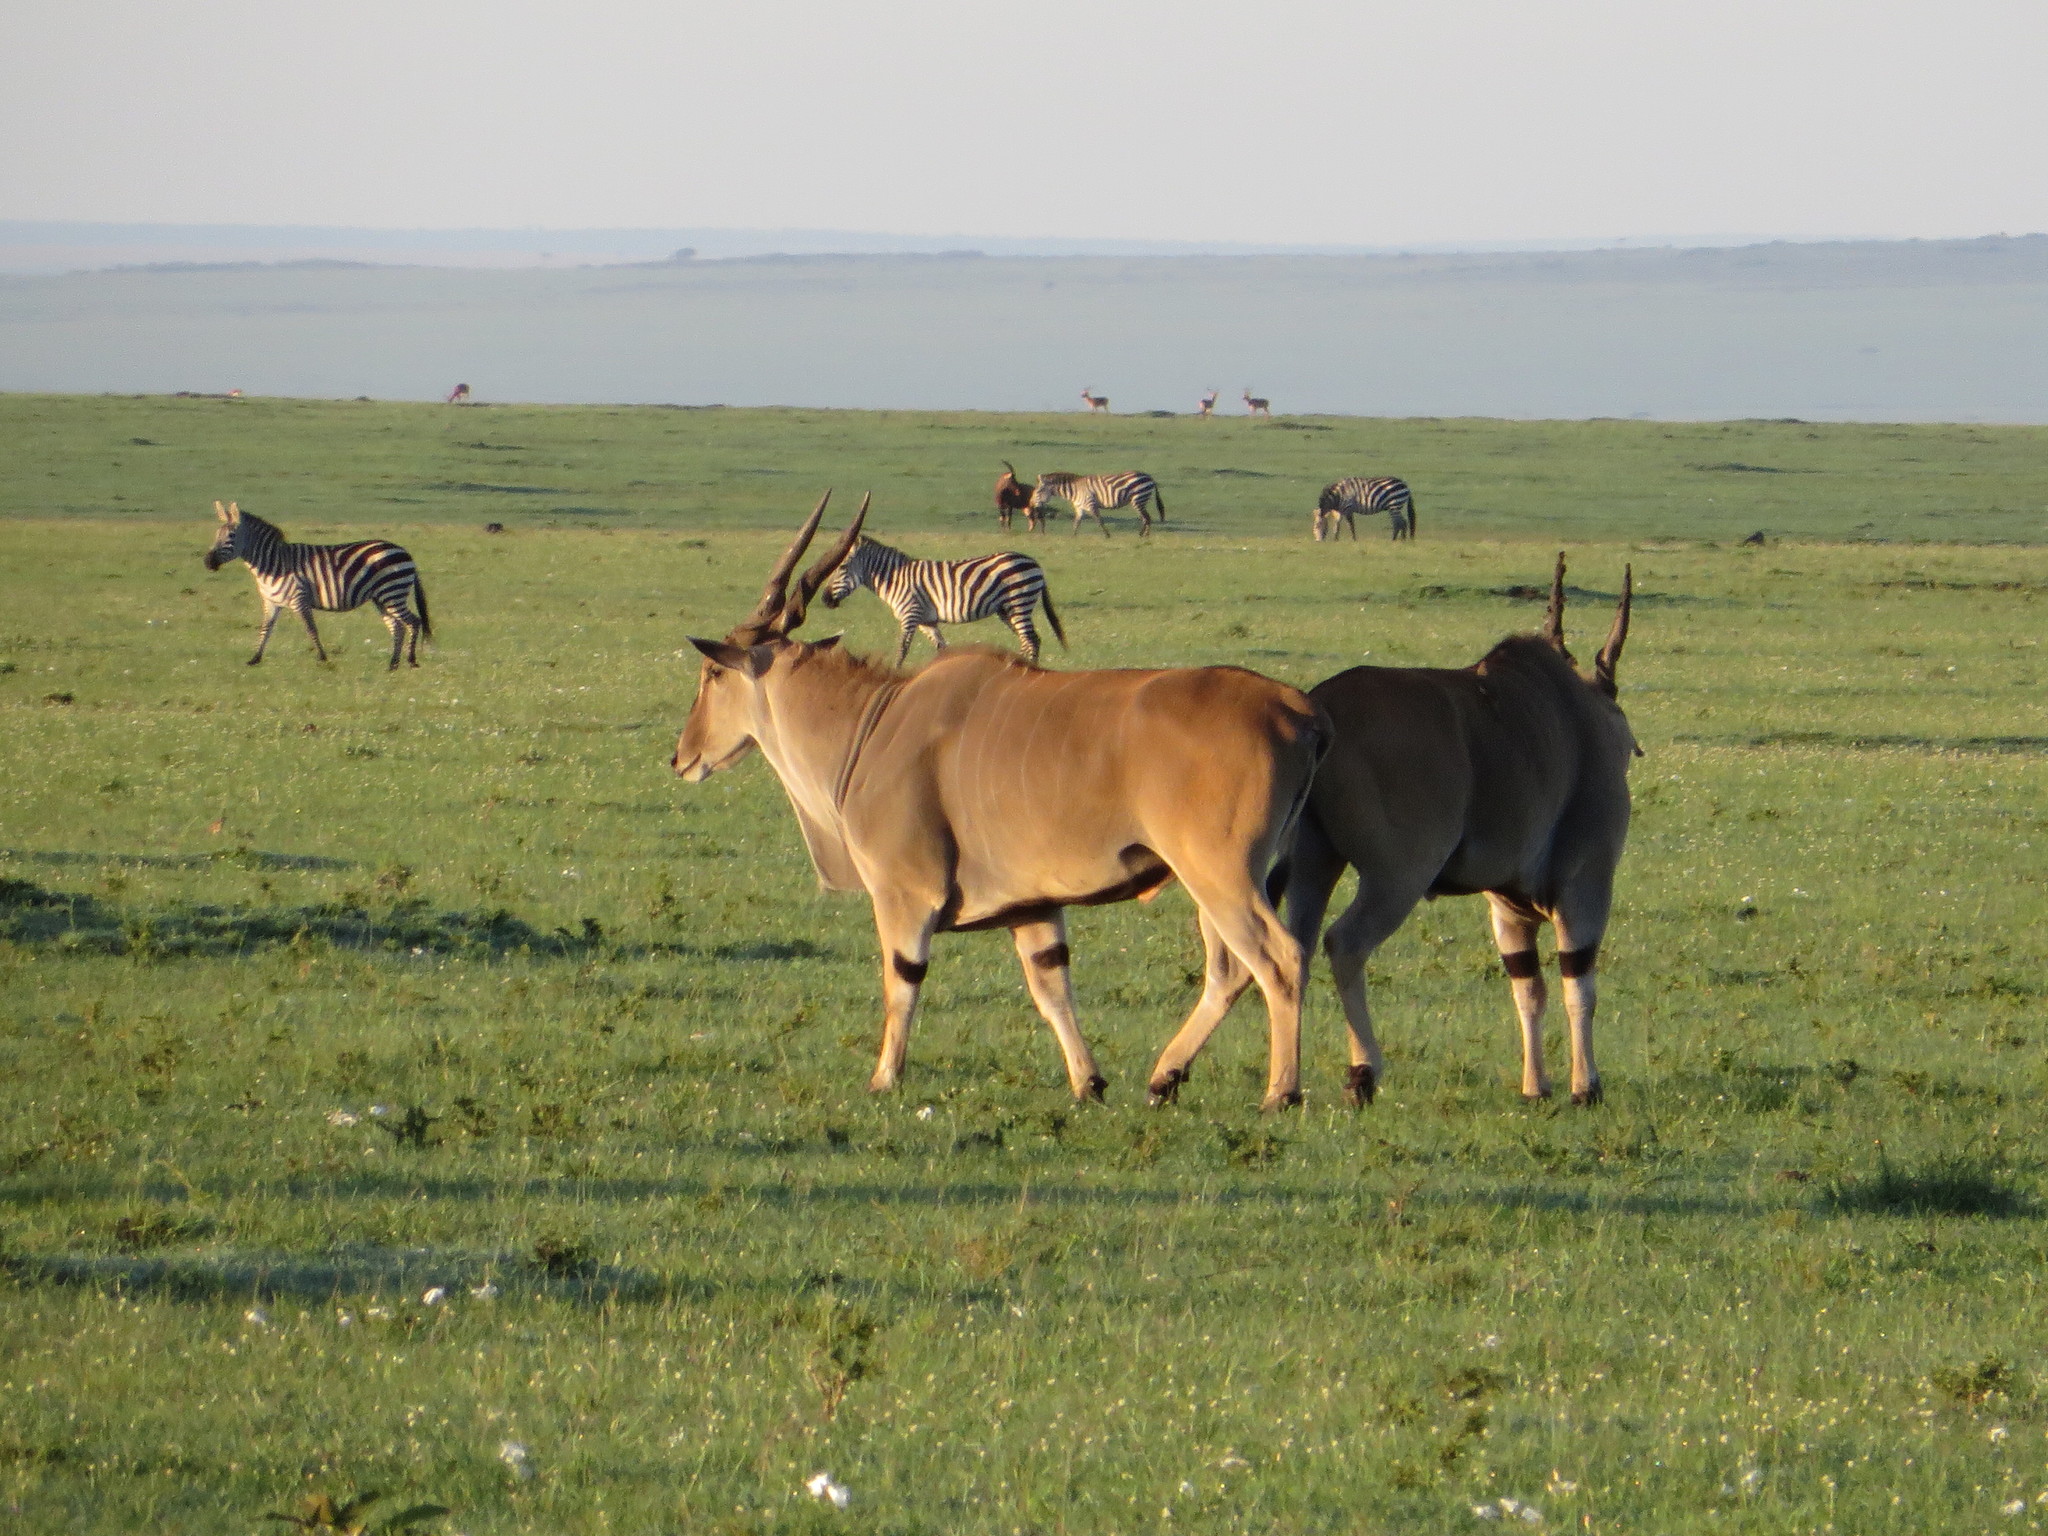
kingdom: Animalia
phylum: Chordata
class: Mammalia
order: Artiodactyla
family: Bovidae
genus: Taurotragus
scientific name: Taurotragus oryx
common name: Common eland
